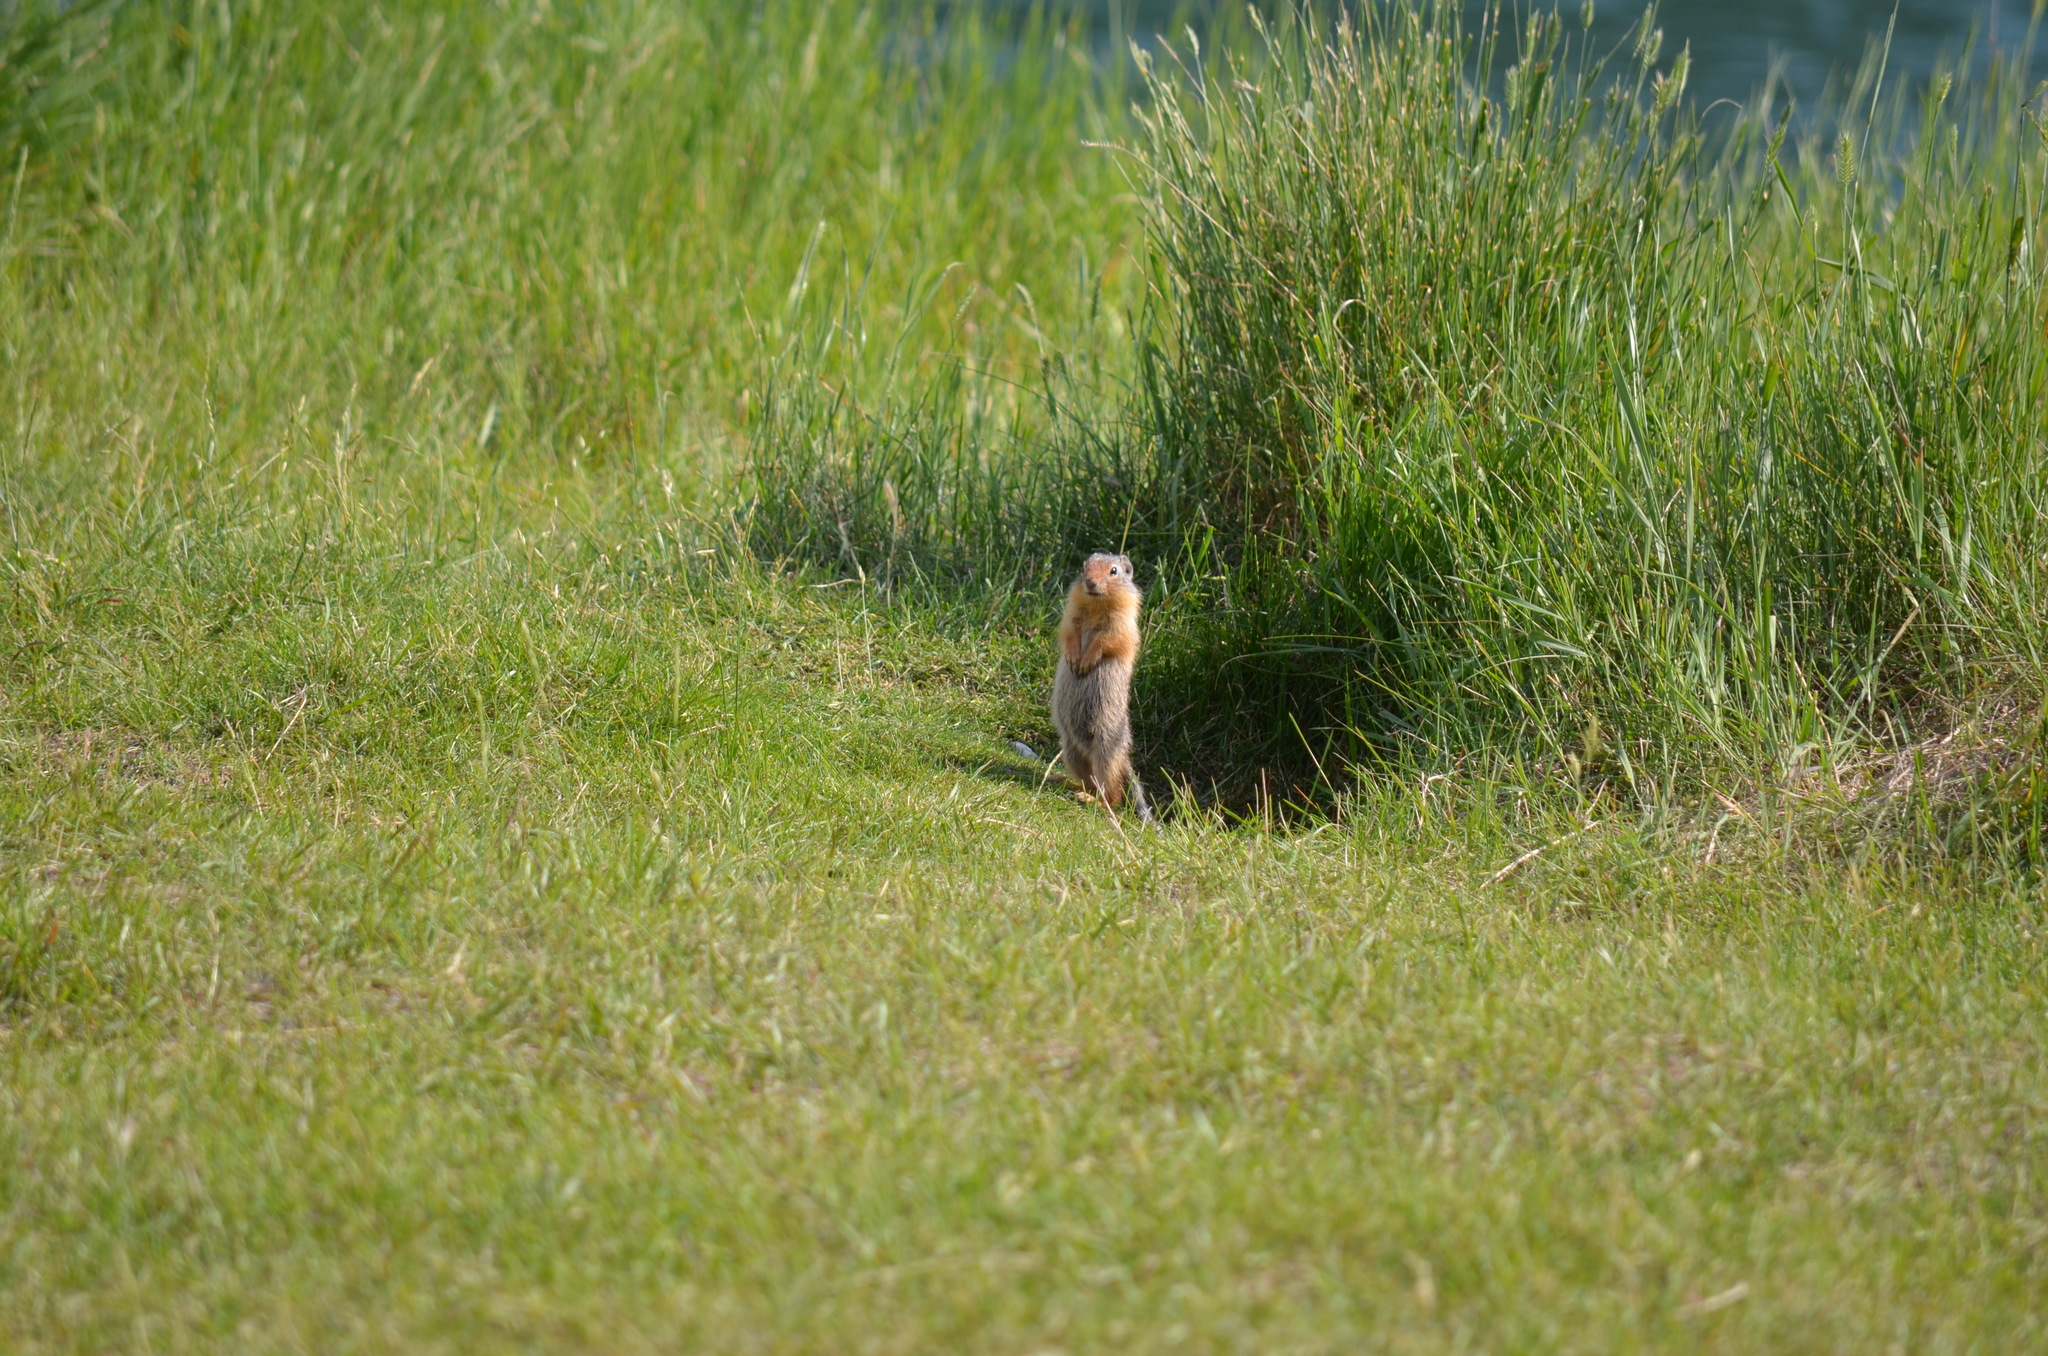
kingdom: Animalia
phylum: Chordata
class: Mammalia
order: Rodentia
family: Sciuridae
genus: Urocitellus
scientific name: Urocitellus columbianus
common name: Columbian ground squirrel
